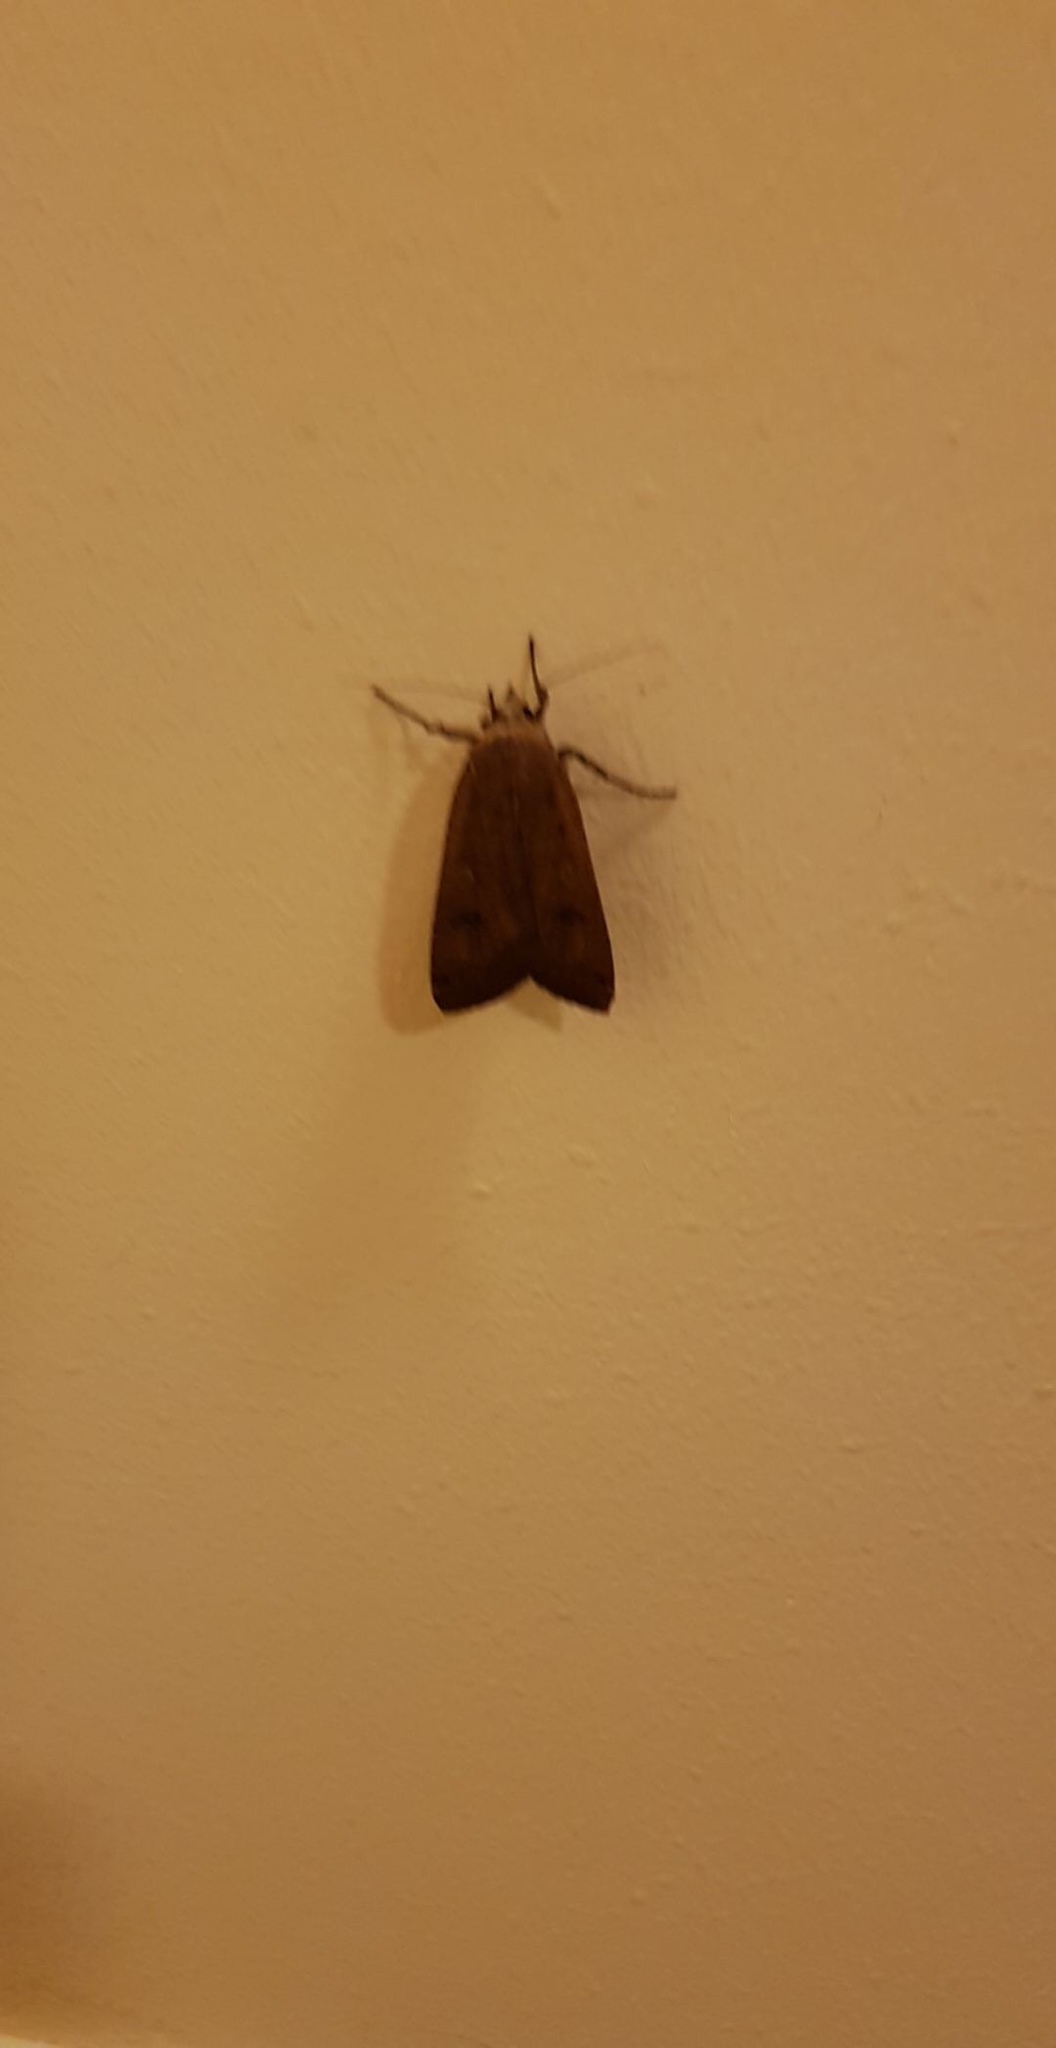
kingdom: Animalia
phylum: Arthropoda
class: Insecta
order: Lepidoptera
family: Noctuidae
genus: Noctua
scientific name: Noctua pronuba
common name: Large yellow underwing
